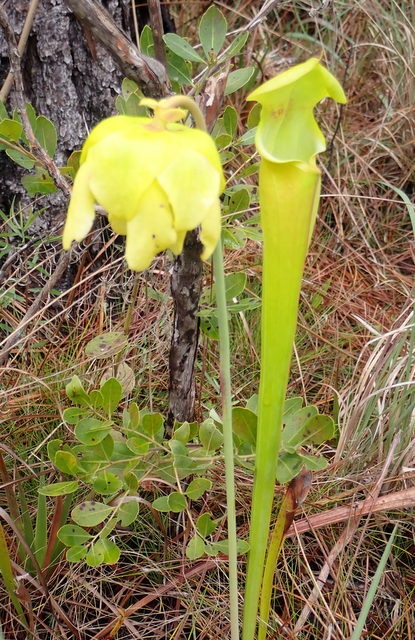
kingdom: Plantae
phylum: Tracheophyta
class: Magnoliopsida
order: Ericales
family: Sarraceniaceae
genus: Sarracenia
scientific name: Sarracenia flava
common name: Trumpets
